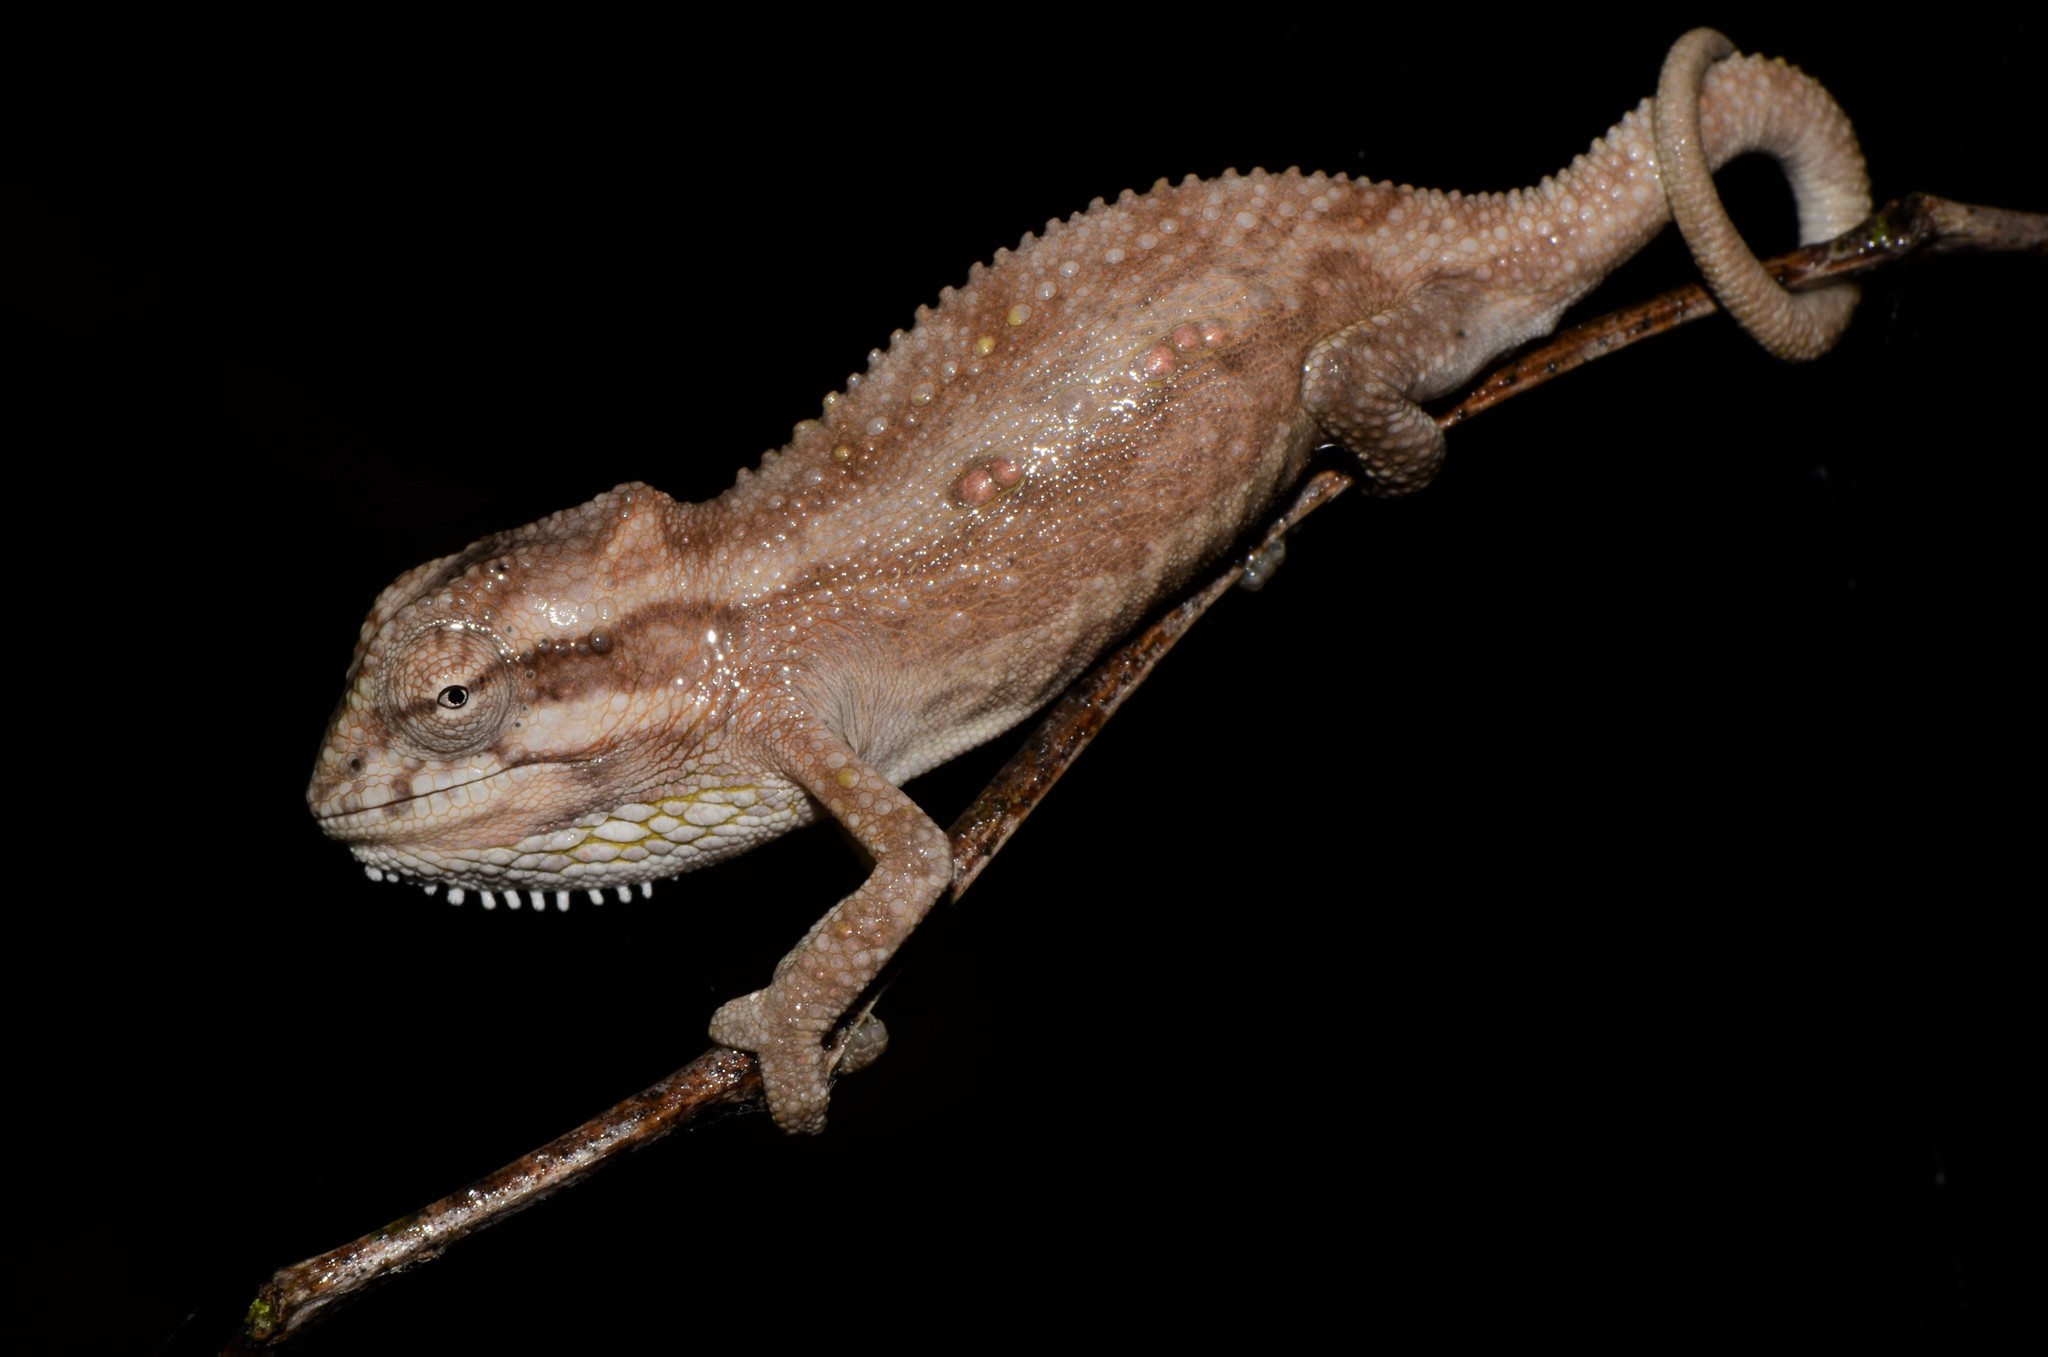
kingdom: Animalia
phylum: Chordata
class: Squamata
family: Chamaeleonidae
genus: Bradypodion
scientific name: Bradypodion pumilum
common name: Cape dwarf chameleon
